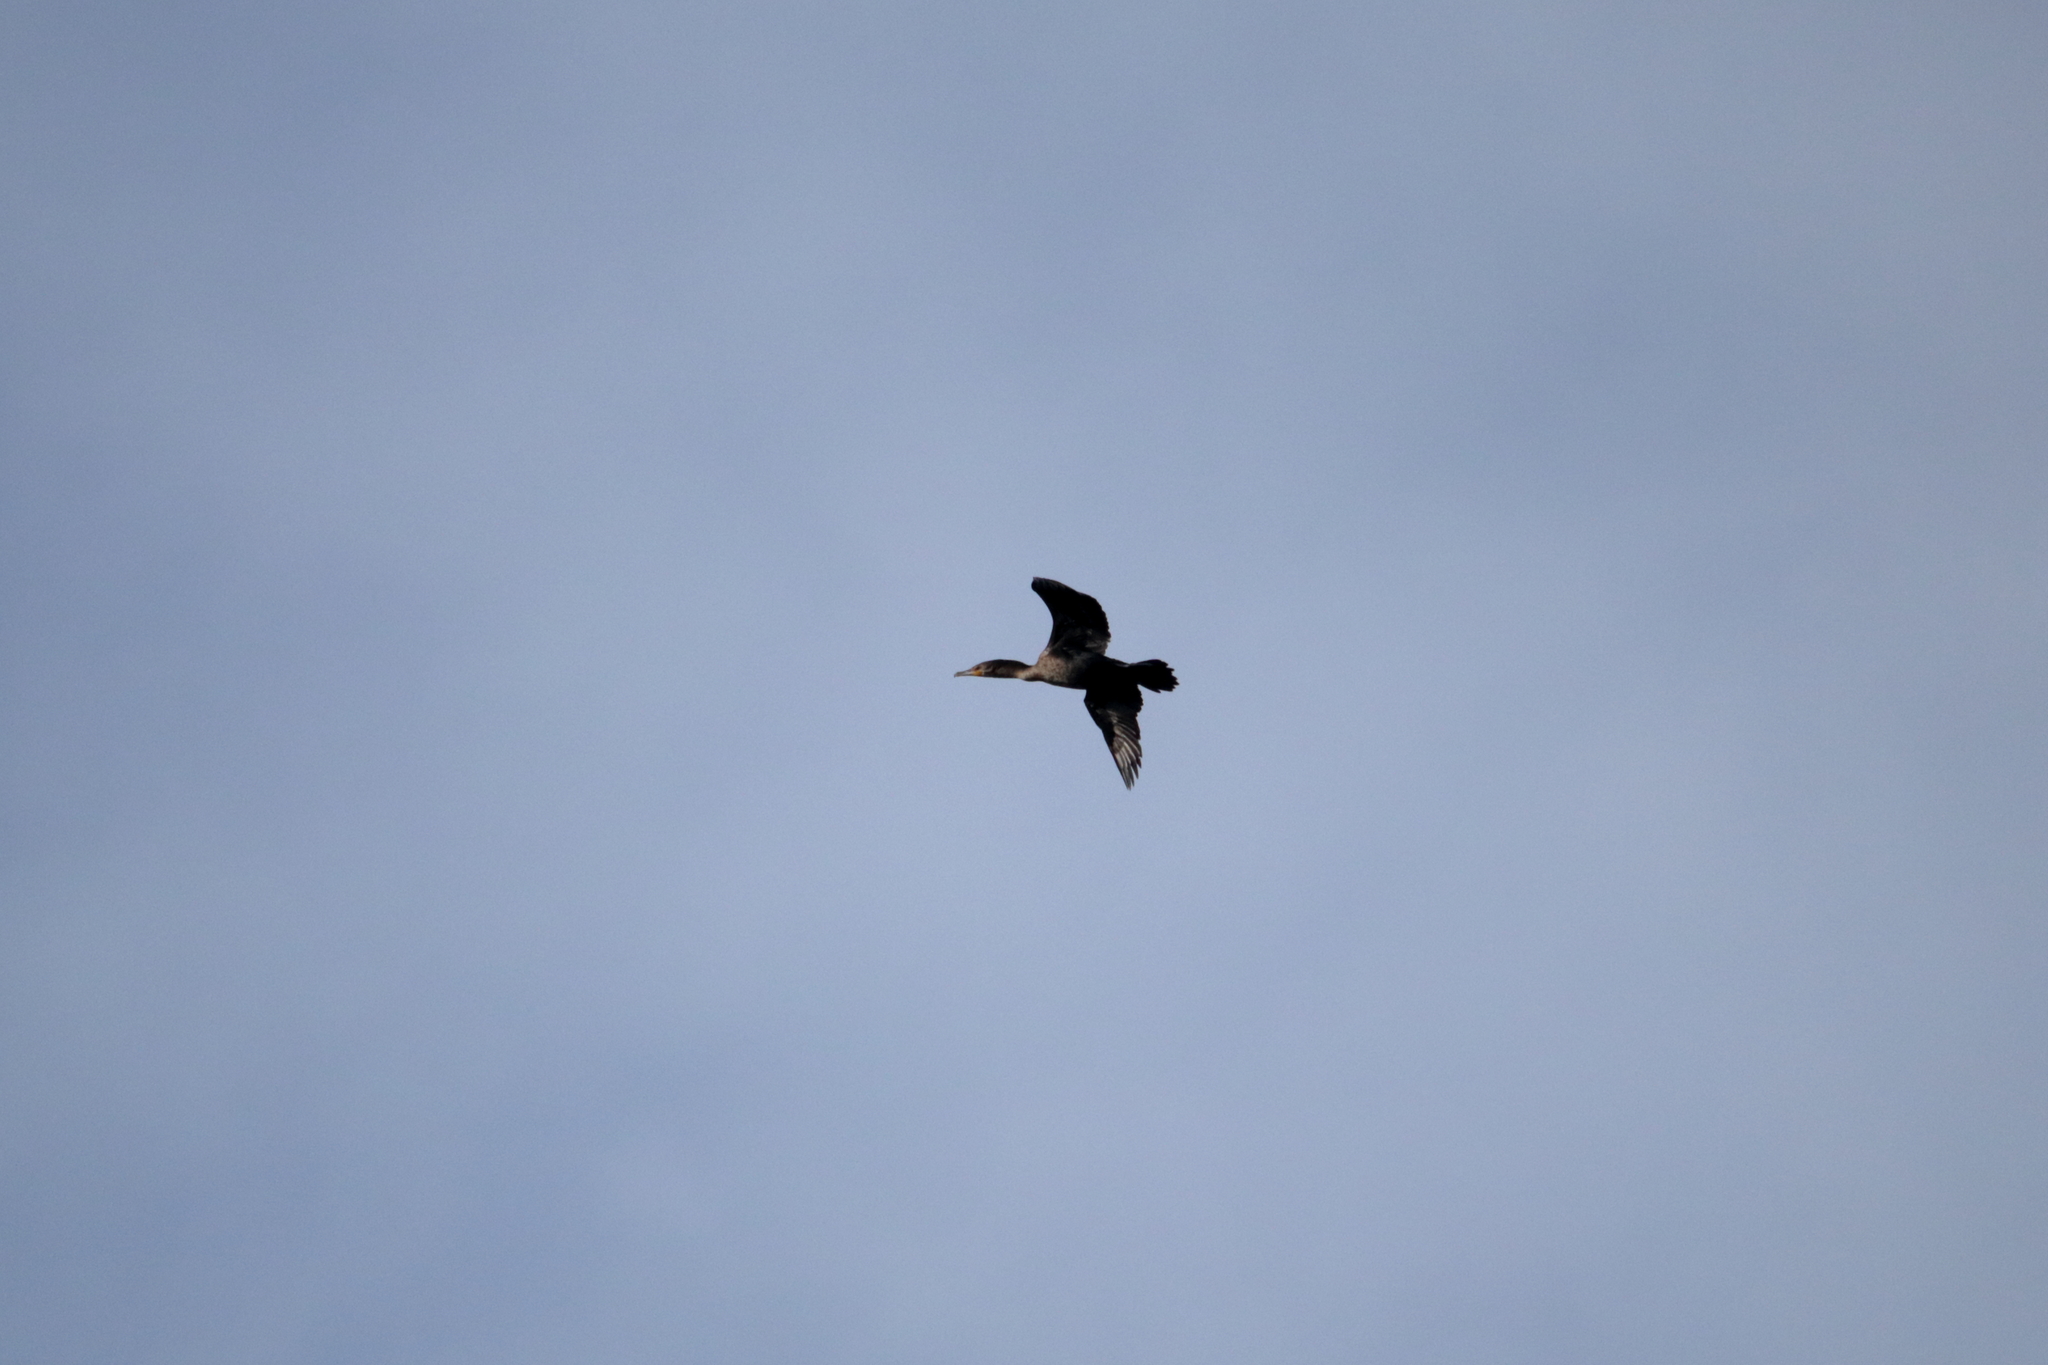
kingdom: Animalia
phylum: Chordata
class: Aves
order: Suliformes
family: Phalacrocoracidae
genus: Phalacrocorax
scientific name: Phalacrocorax auritus
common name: Double-crested cormorant
